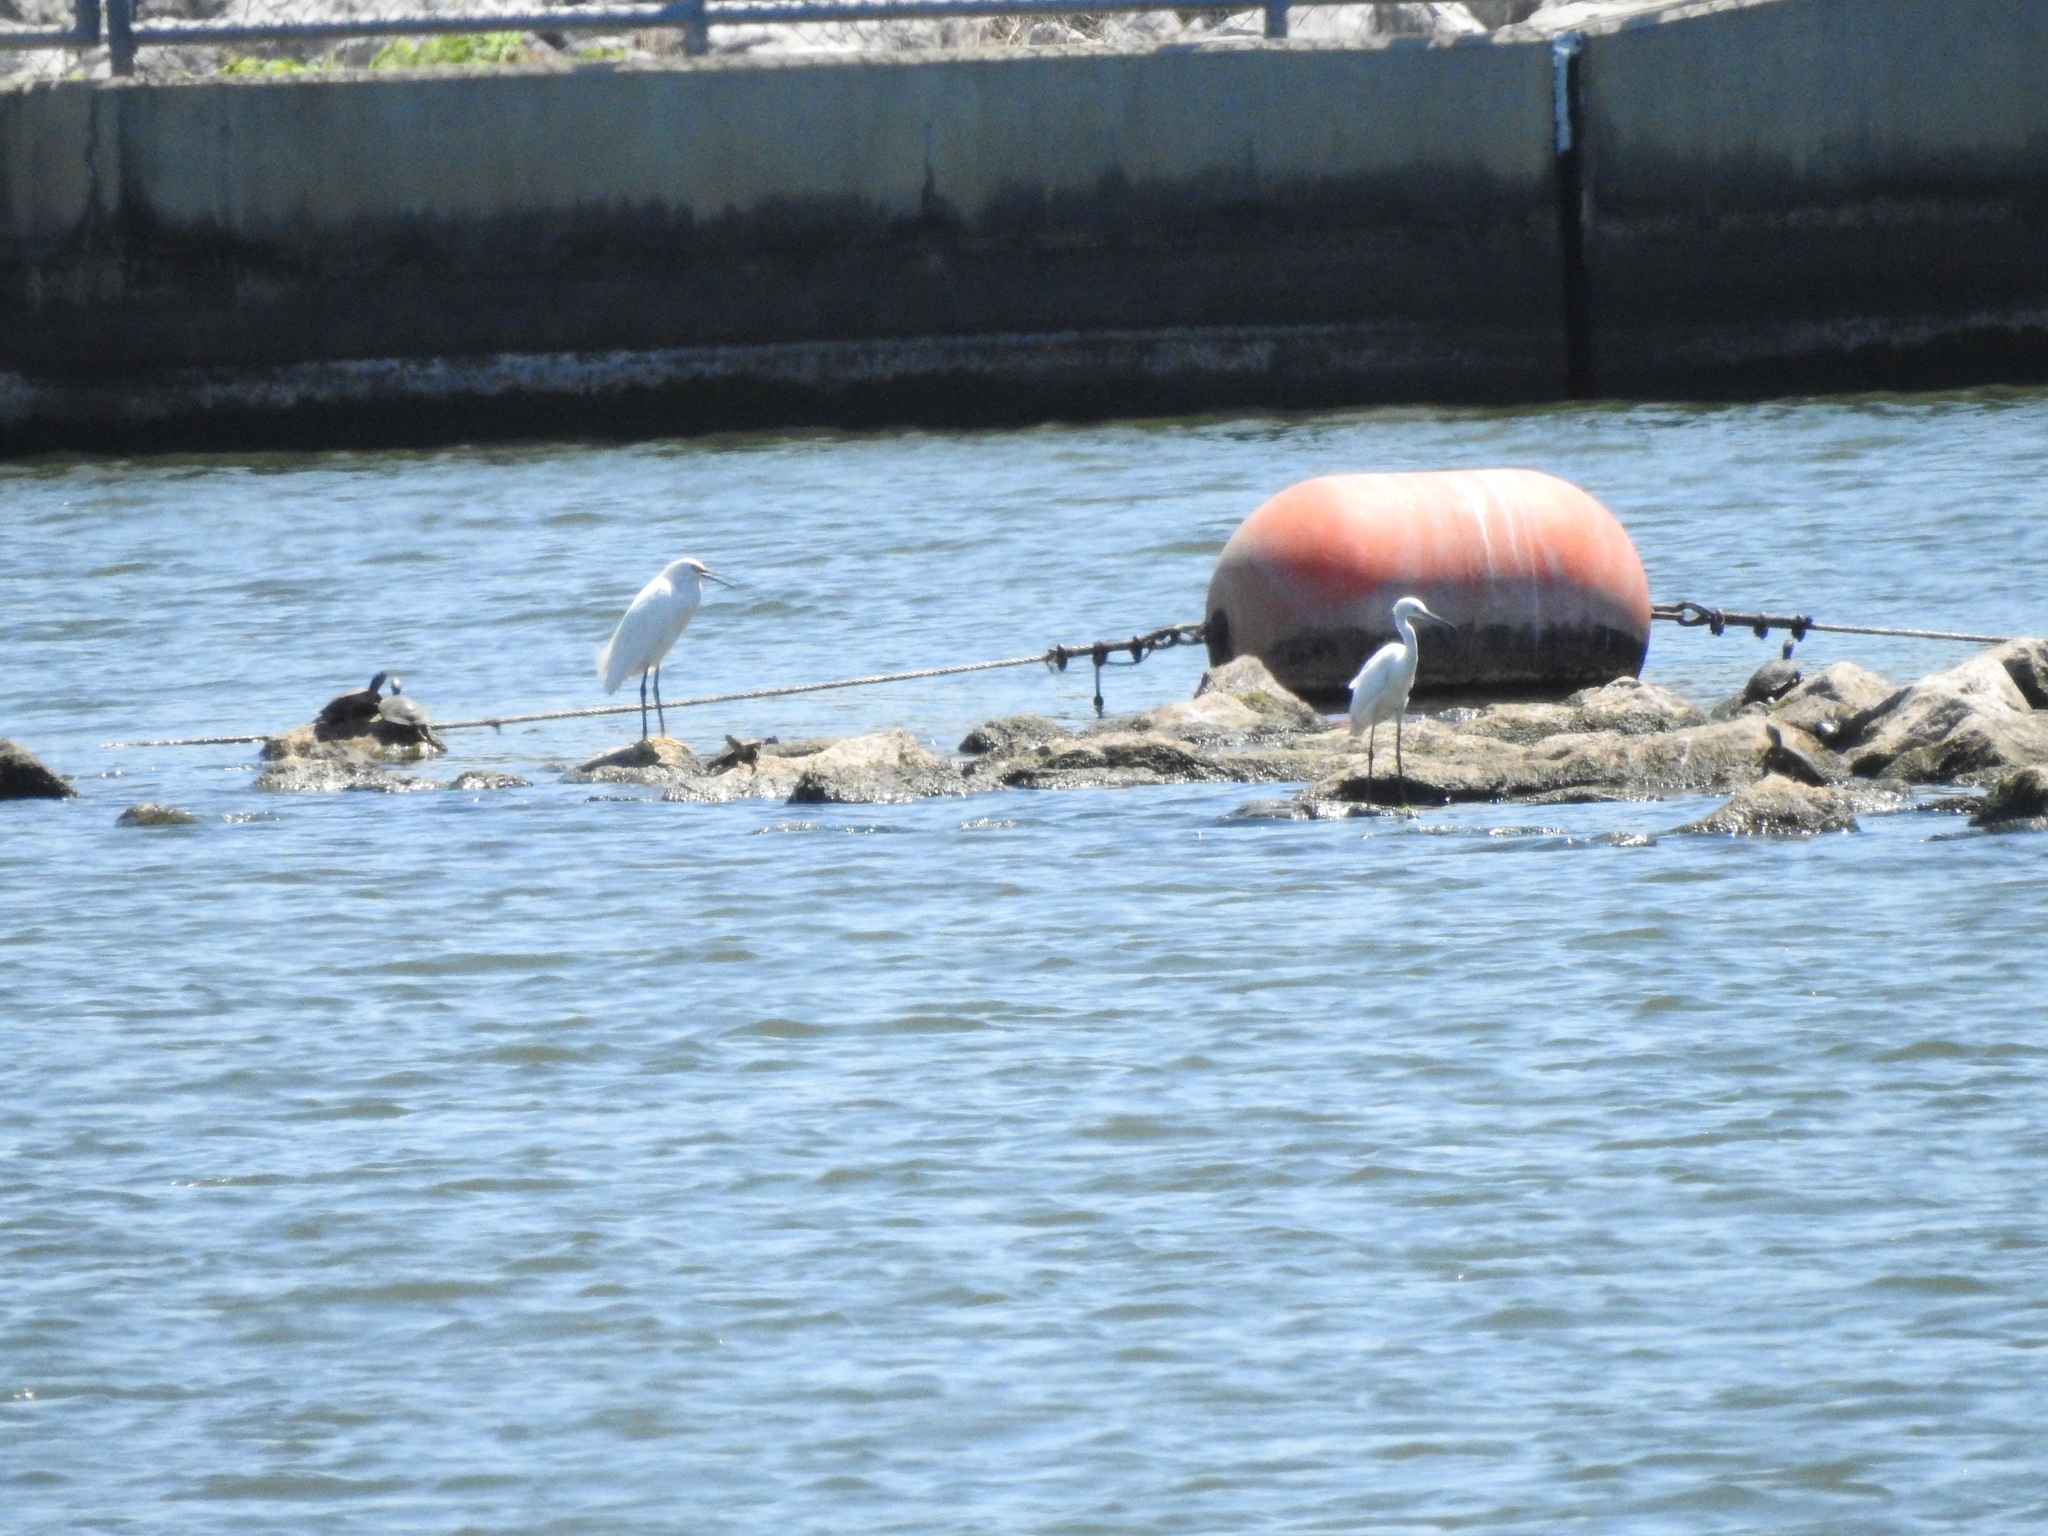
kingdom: Animalia
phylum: Chordata
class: Aves
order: Pelecaniformes
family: Ardeidae
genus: Egretta
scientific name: Egretta thula
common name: Snowy egret
